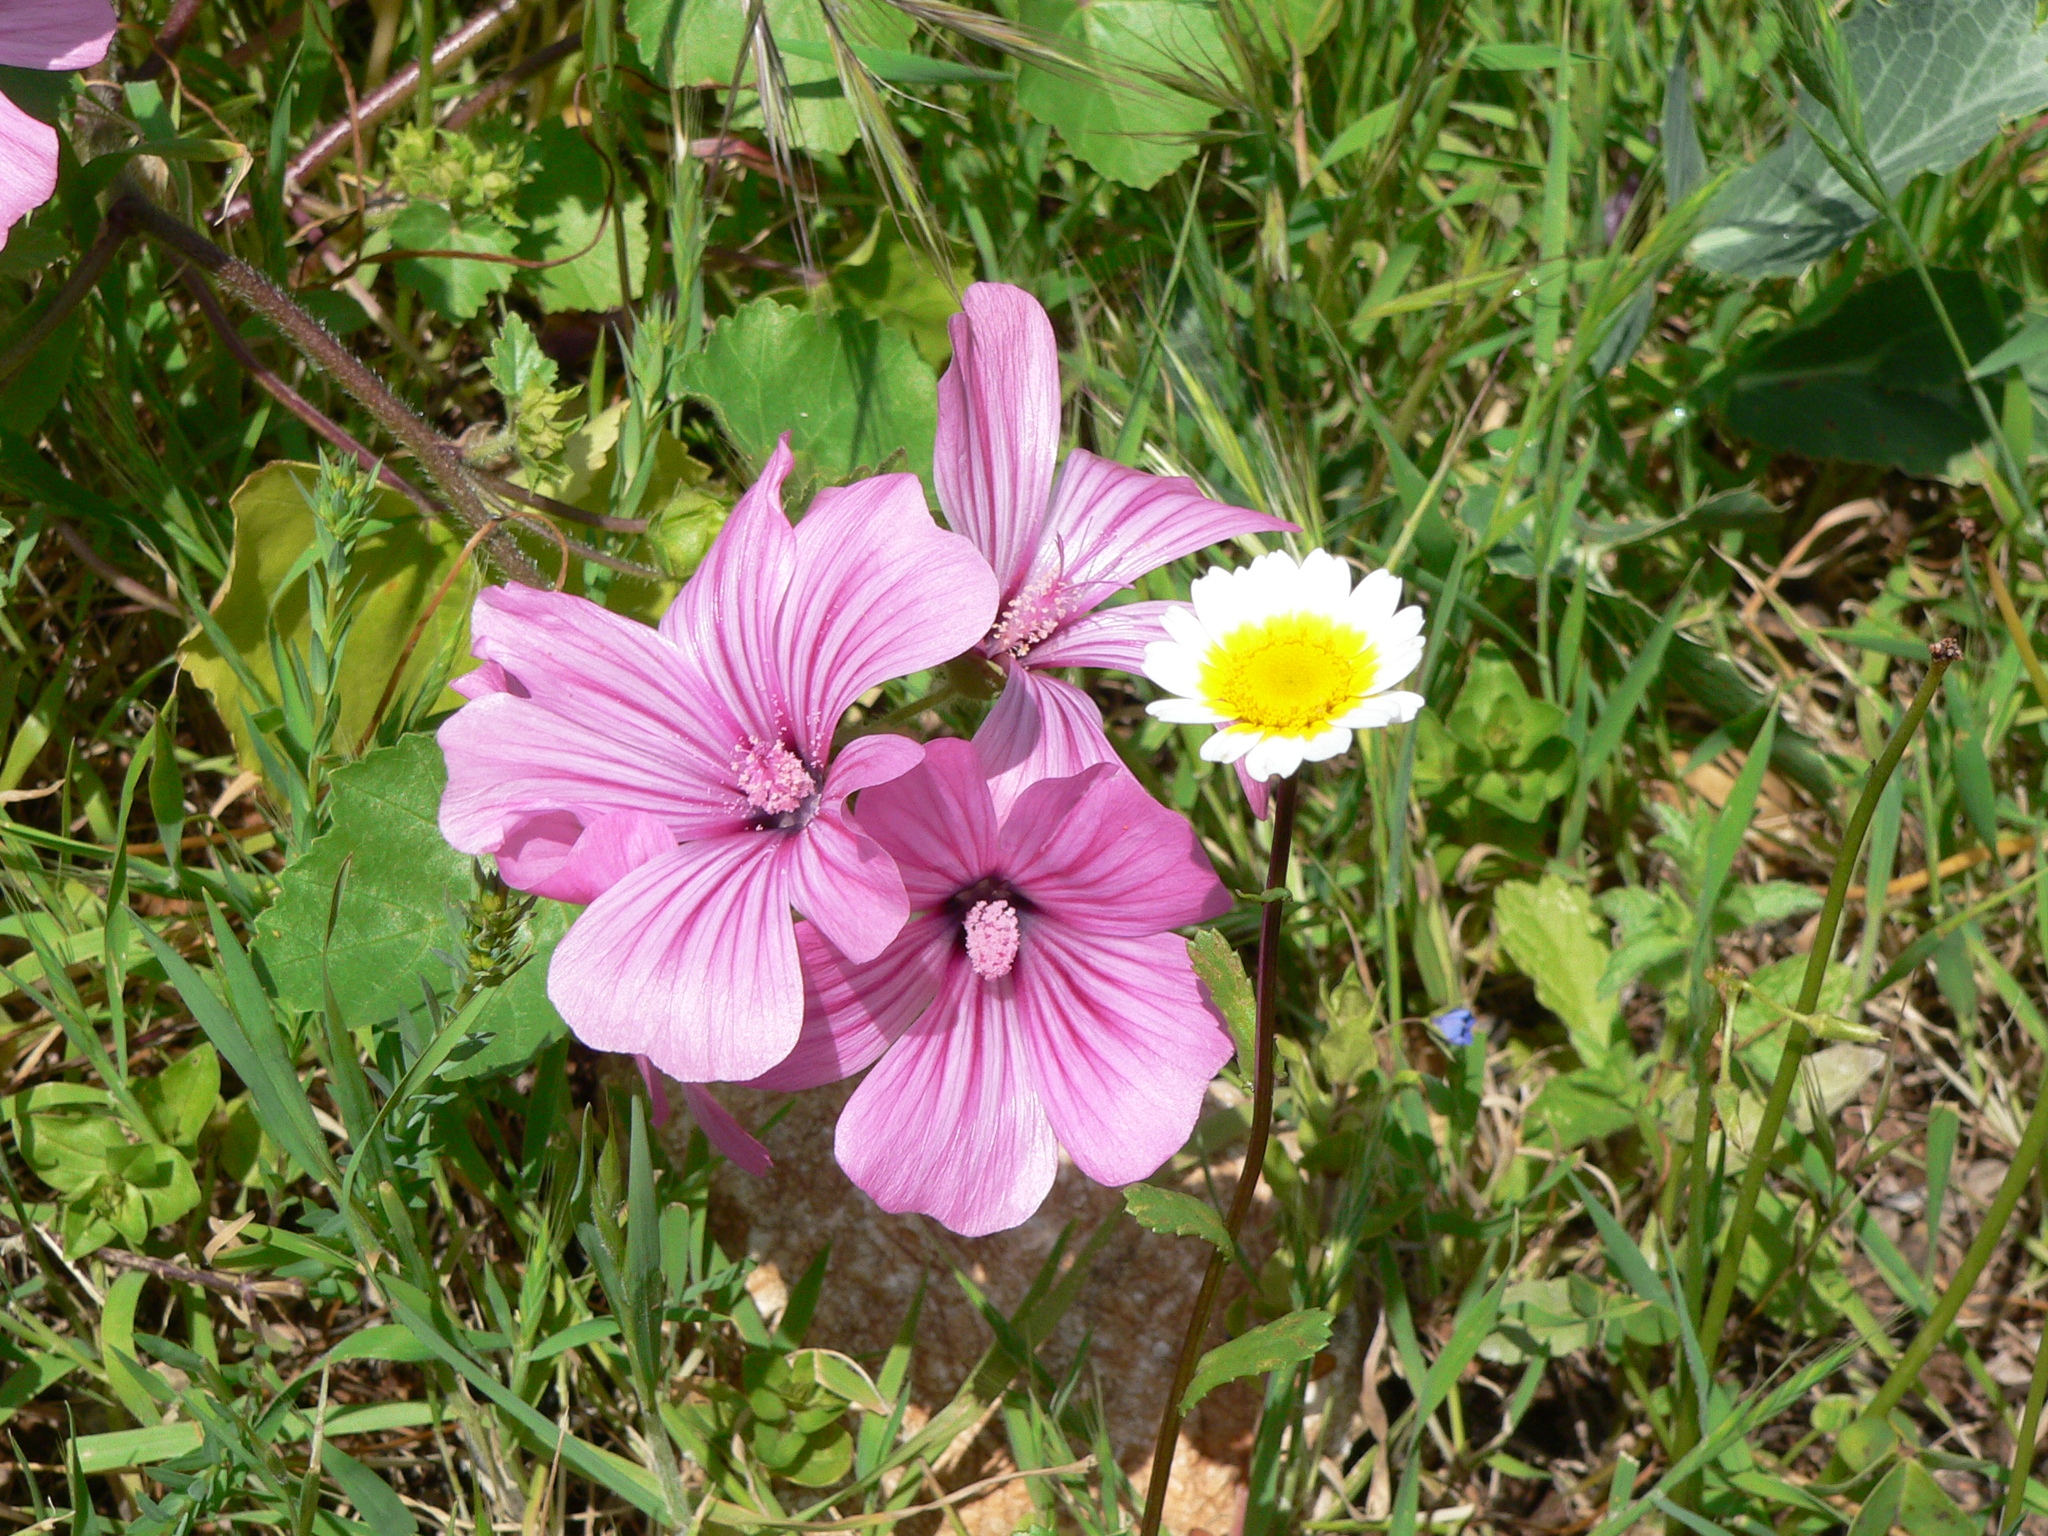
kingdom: Plantae
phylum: Tracheophyta
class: Magnoliopsida
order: Malvales
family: Malvaceae
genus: Malva
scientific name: Malva trimestris
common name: Royal mallow
